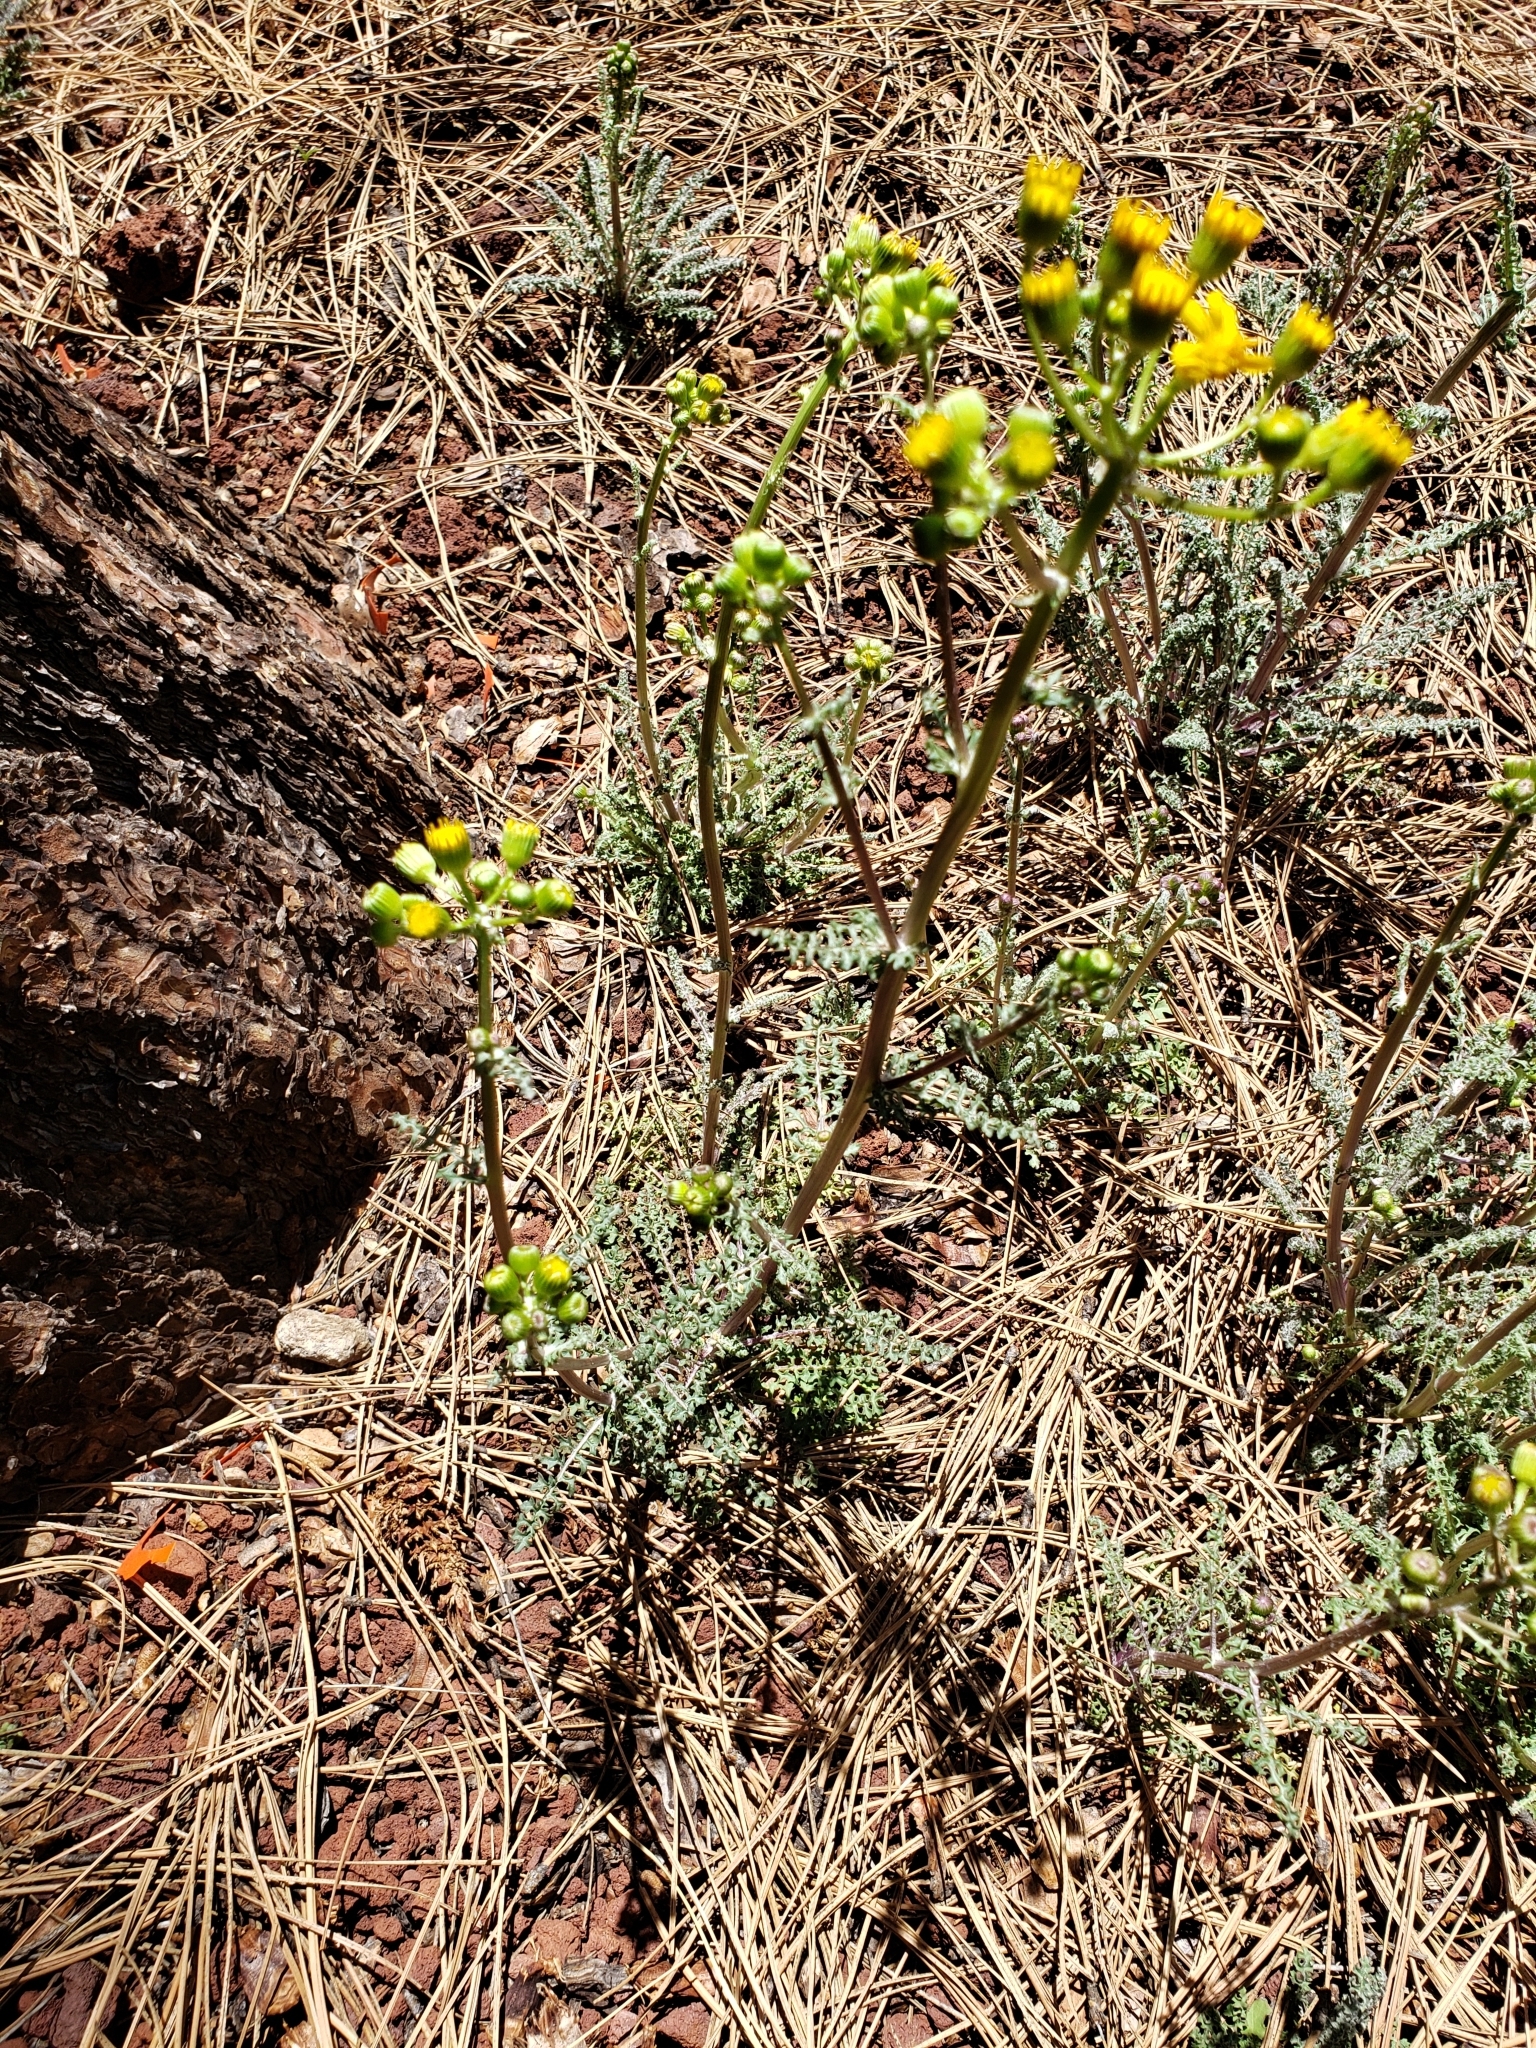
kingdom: Plantae
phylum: Tracheophyta
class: Magnoliopsida
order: Asterales
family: Asteraceae
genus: Packera
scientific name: Packera multilobata
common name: Lobe-leaf groundsel
